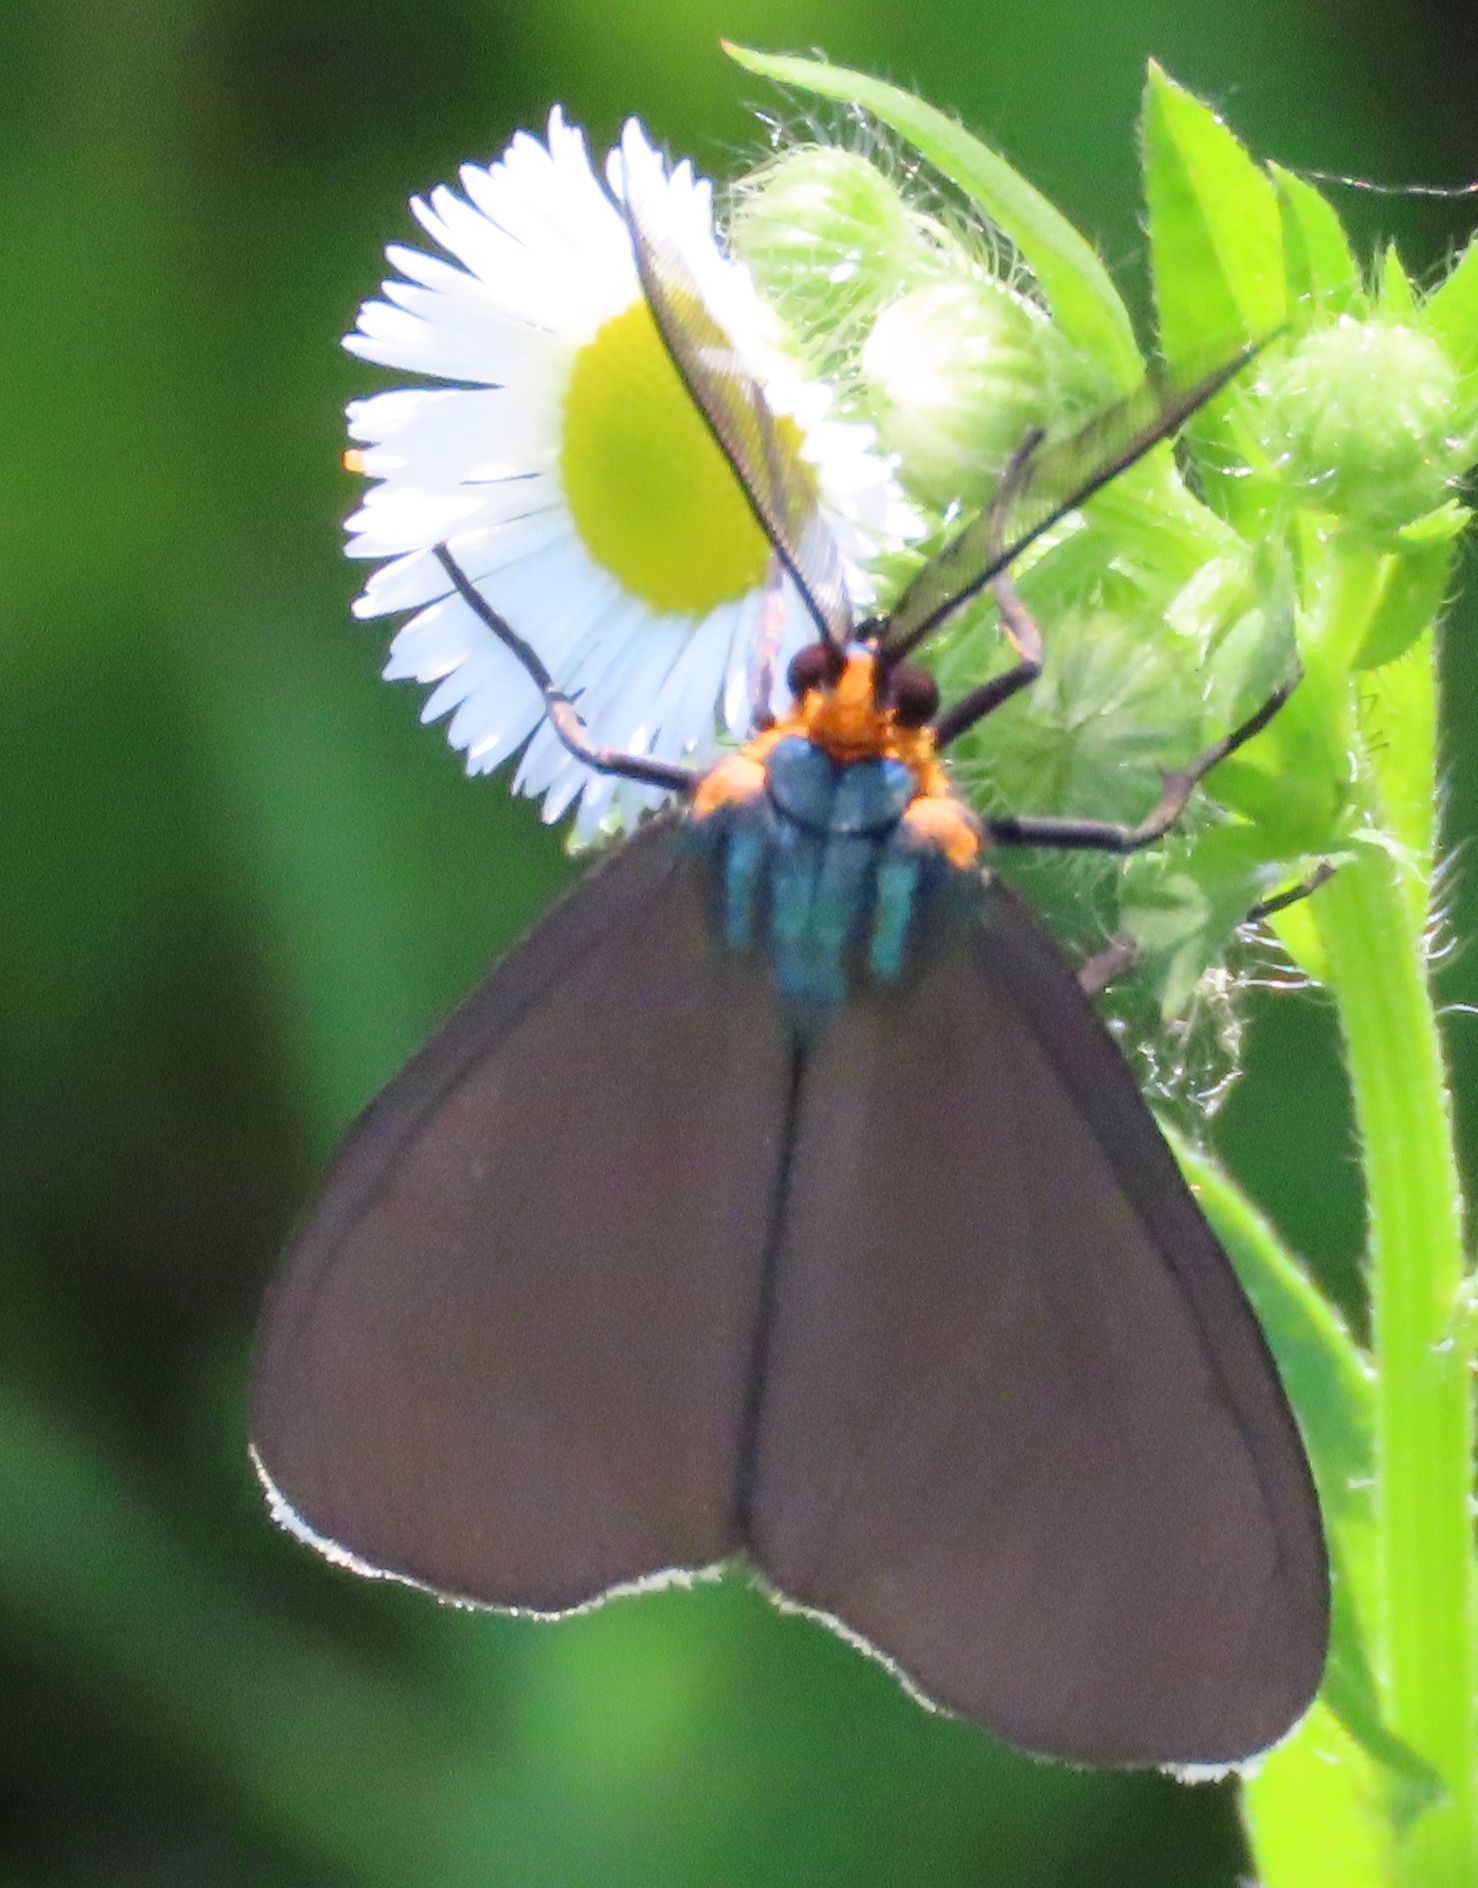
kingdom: Animalia
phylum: Arthropoda
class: Insecta
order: Lepidoptera
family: Erebidae
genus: Ctenucha
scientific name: Ctenucha virginica
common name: Virginia ctenucha moth
